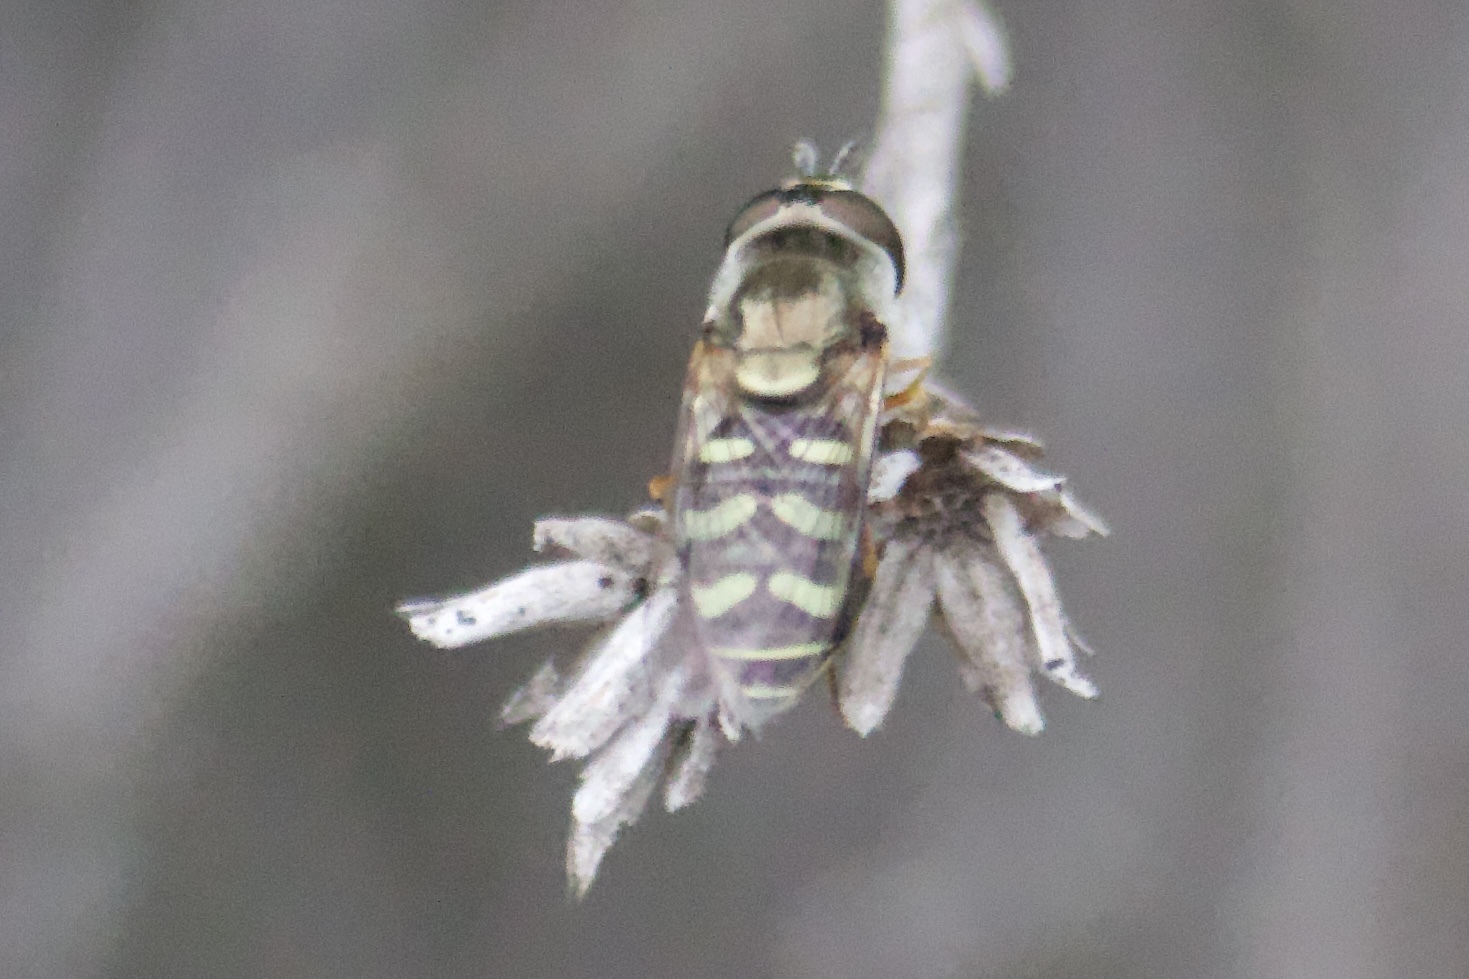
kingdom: Animalia
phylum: Arthropoda
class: Insecta
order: Diptera
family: Syrphidae
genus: Eupeodes
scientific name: Eupeodes volucris
